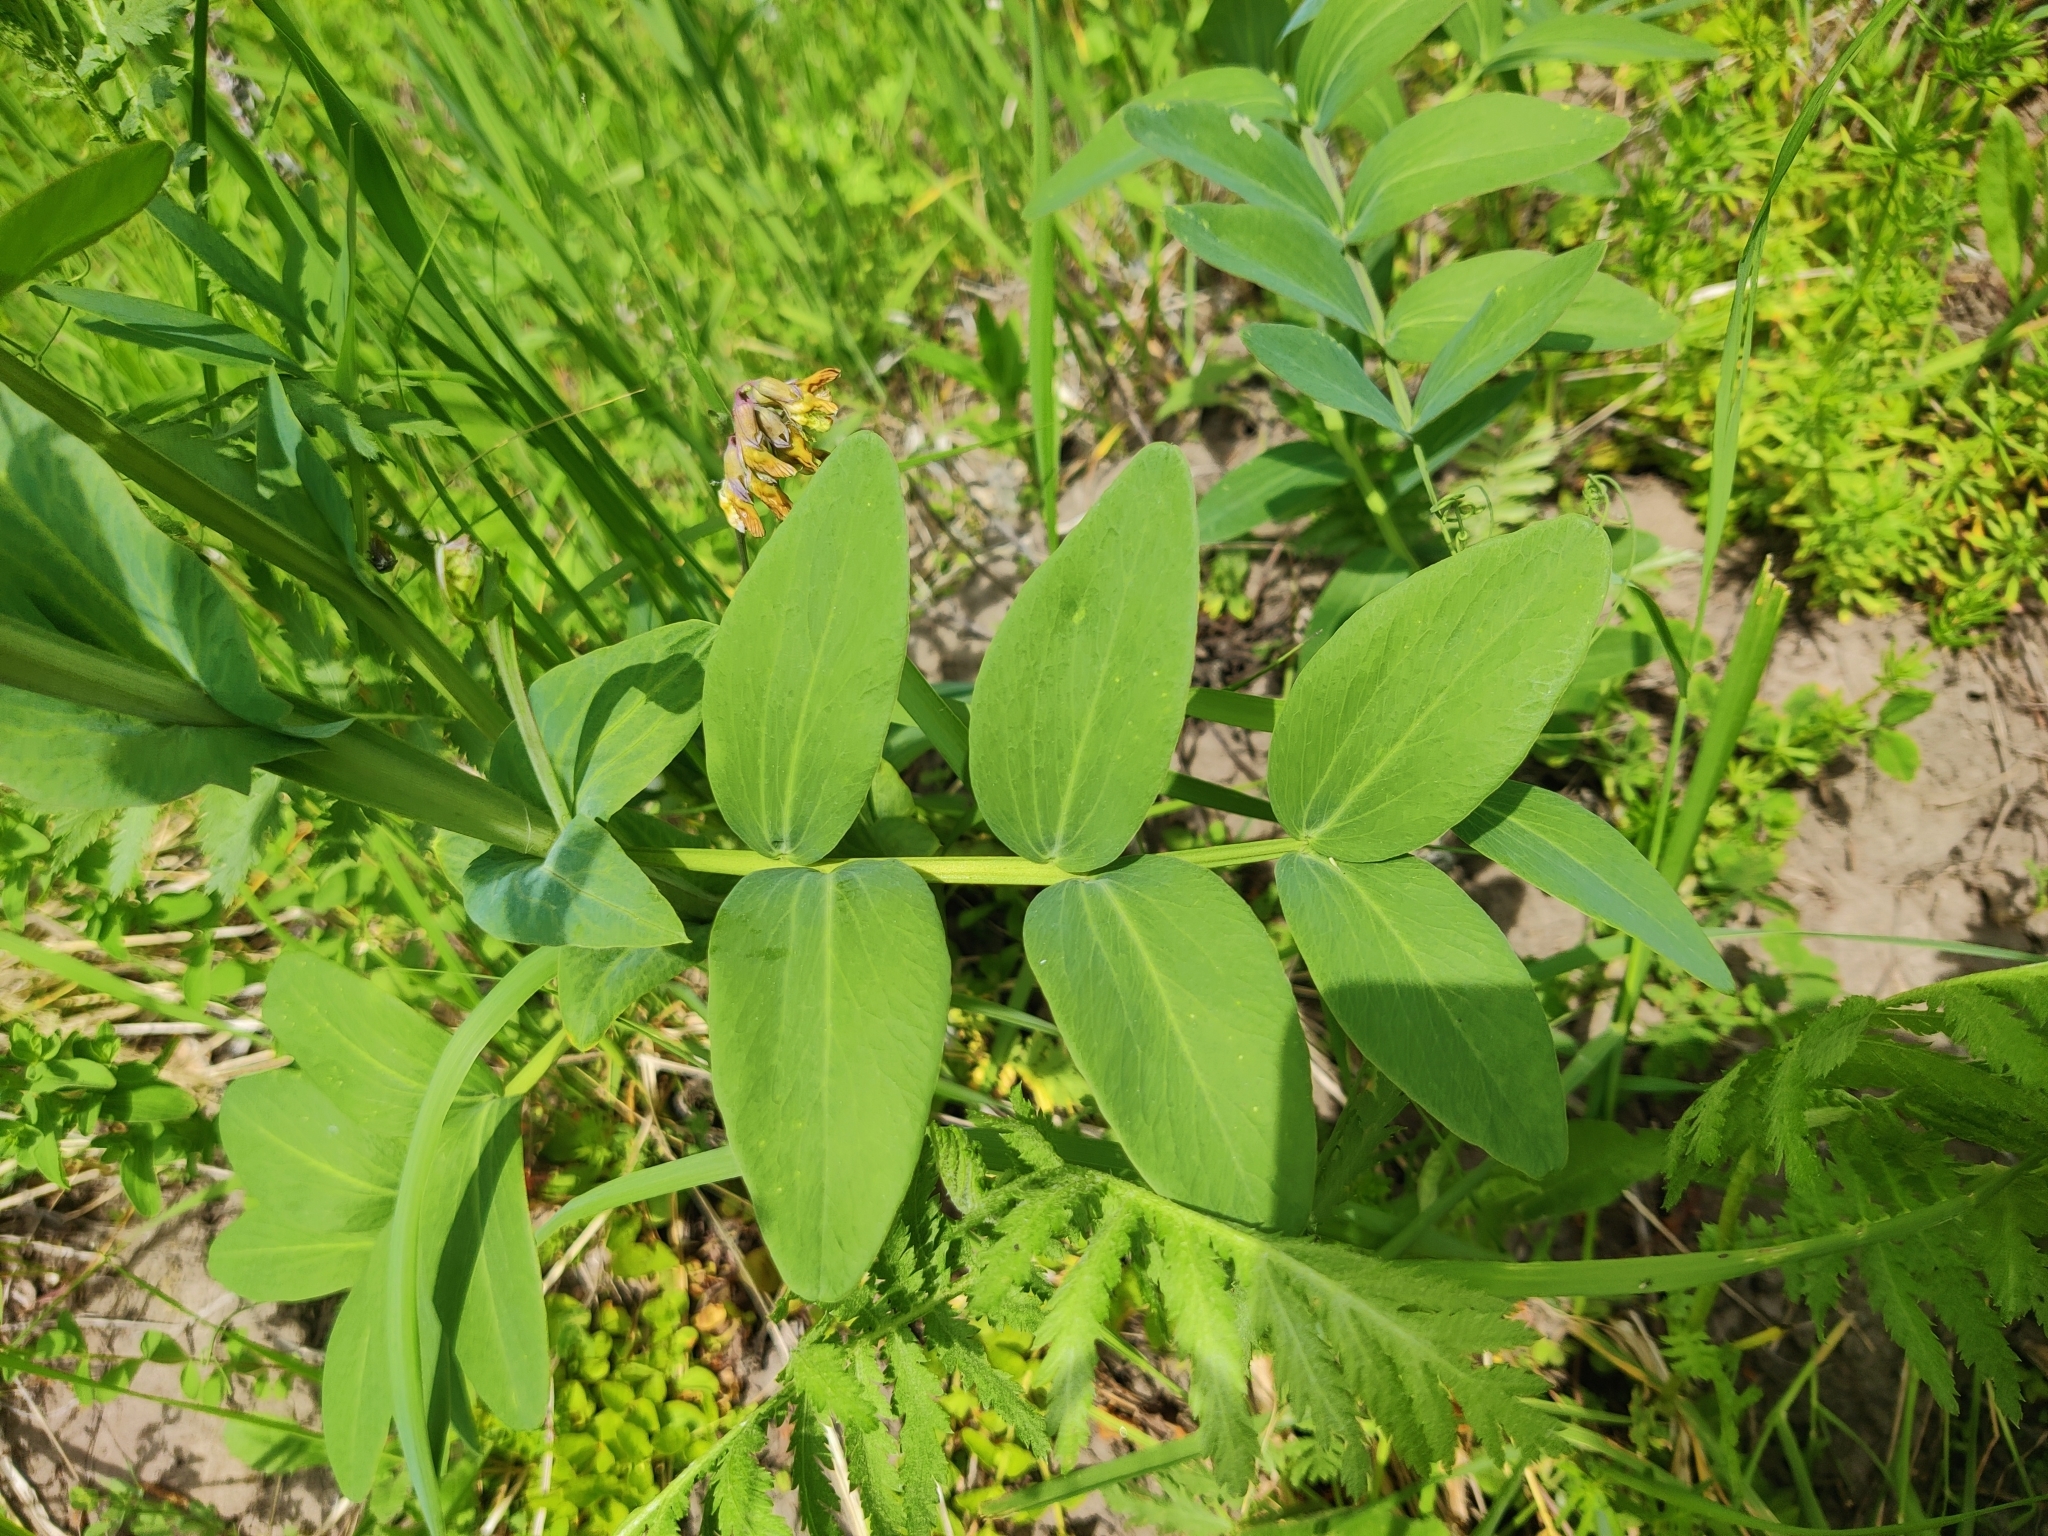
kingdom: Plantae
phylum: Tracheophyta
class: Magnoliopsida
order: Fabales
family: Fabaceae
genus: Lathyrus
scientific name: Lathyrus pisiformis
